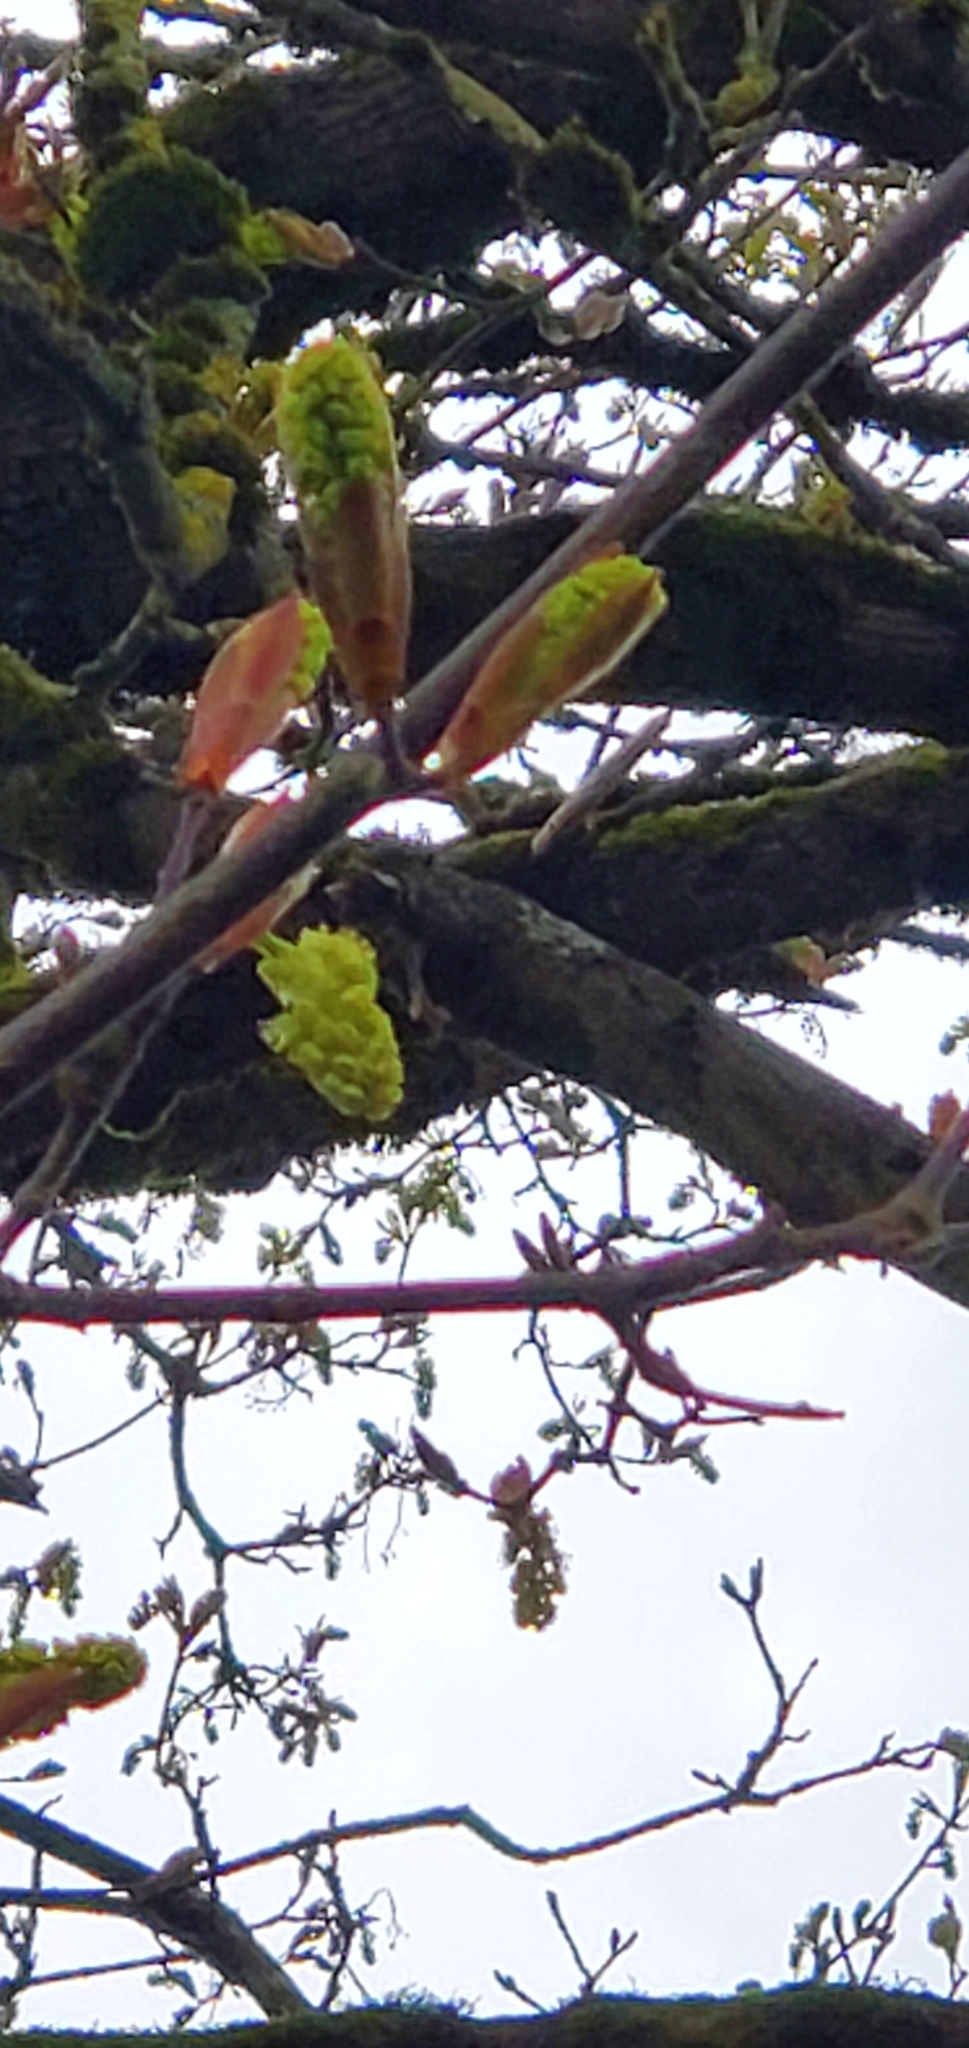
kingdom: Plantae
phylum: Tracheophyta
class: Magnoliopsida
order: Sapindales
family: Sapindaceae
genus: Acer
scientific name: Acer macrophyllum
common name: Oregon maple
